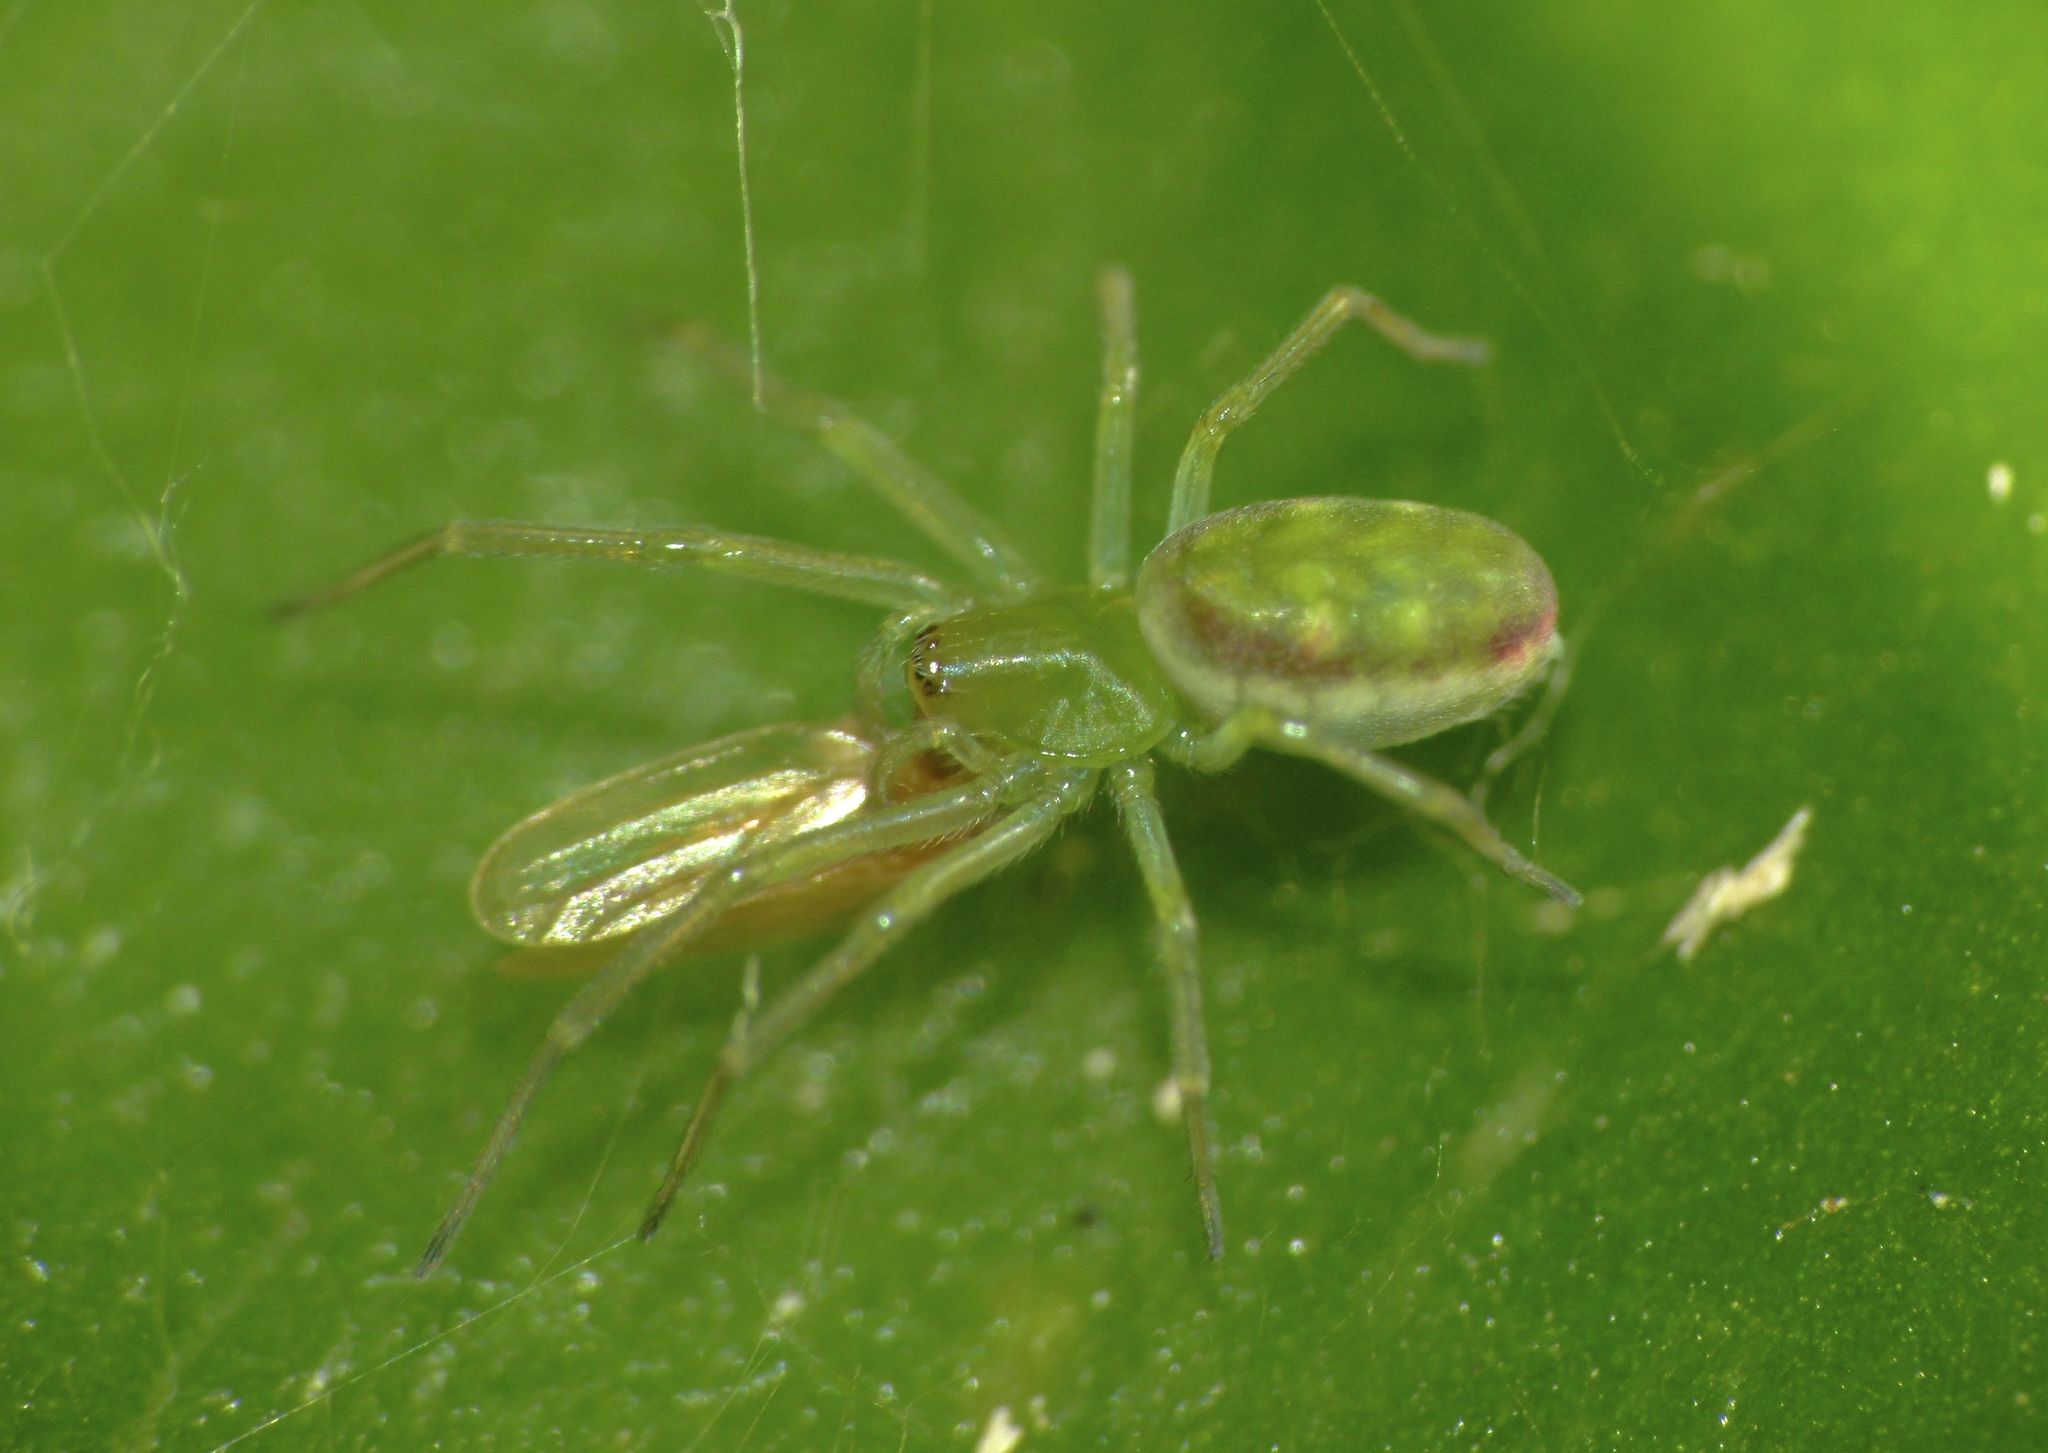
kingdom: Animalia
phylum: Arthropoda
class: Arachnida
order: Araneae
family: Dictynidae
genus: Paradictyna
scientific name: Paradictyna ilamia
